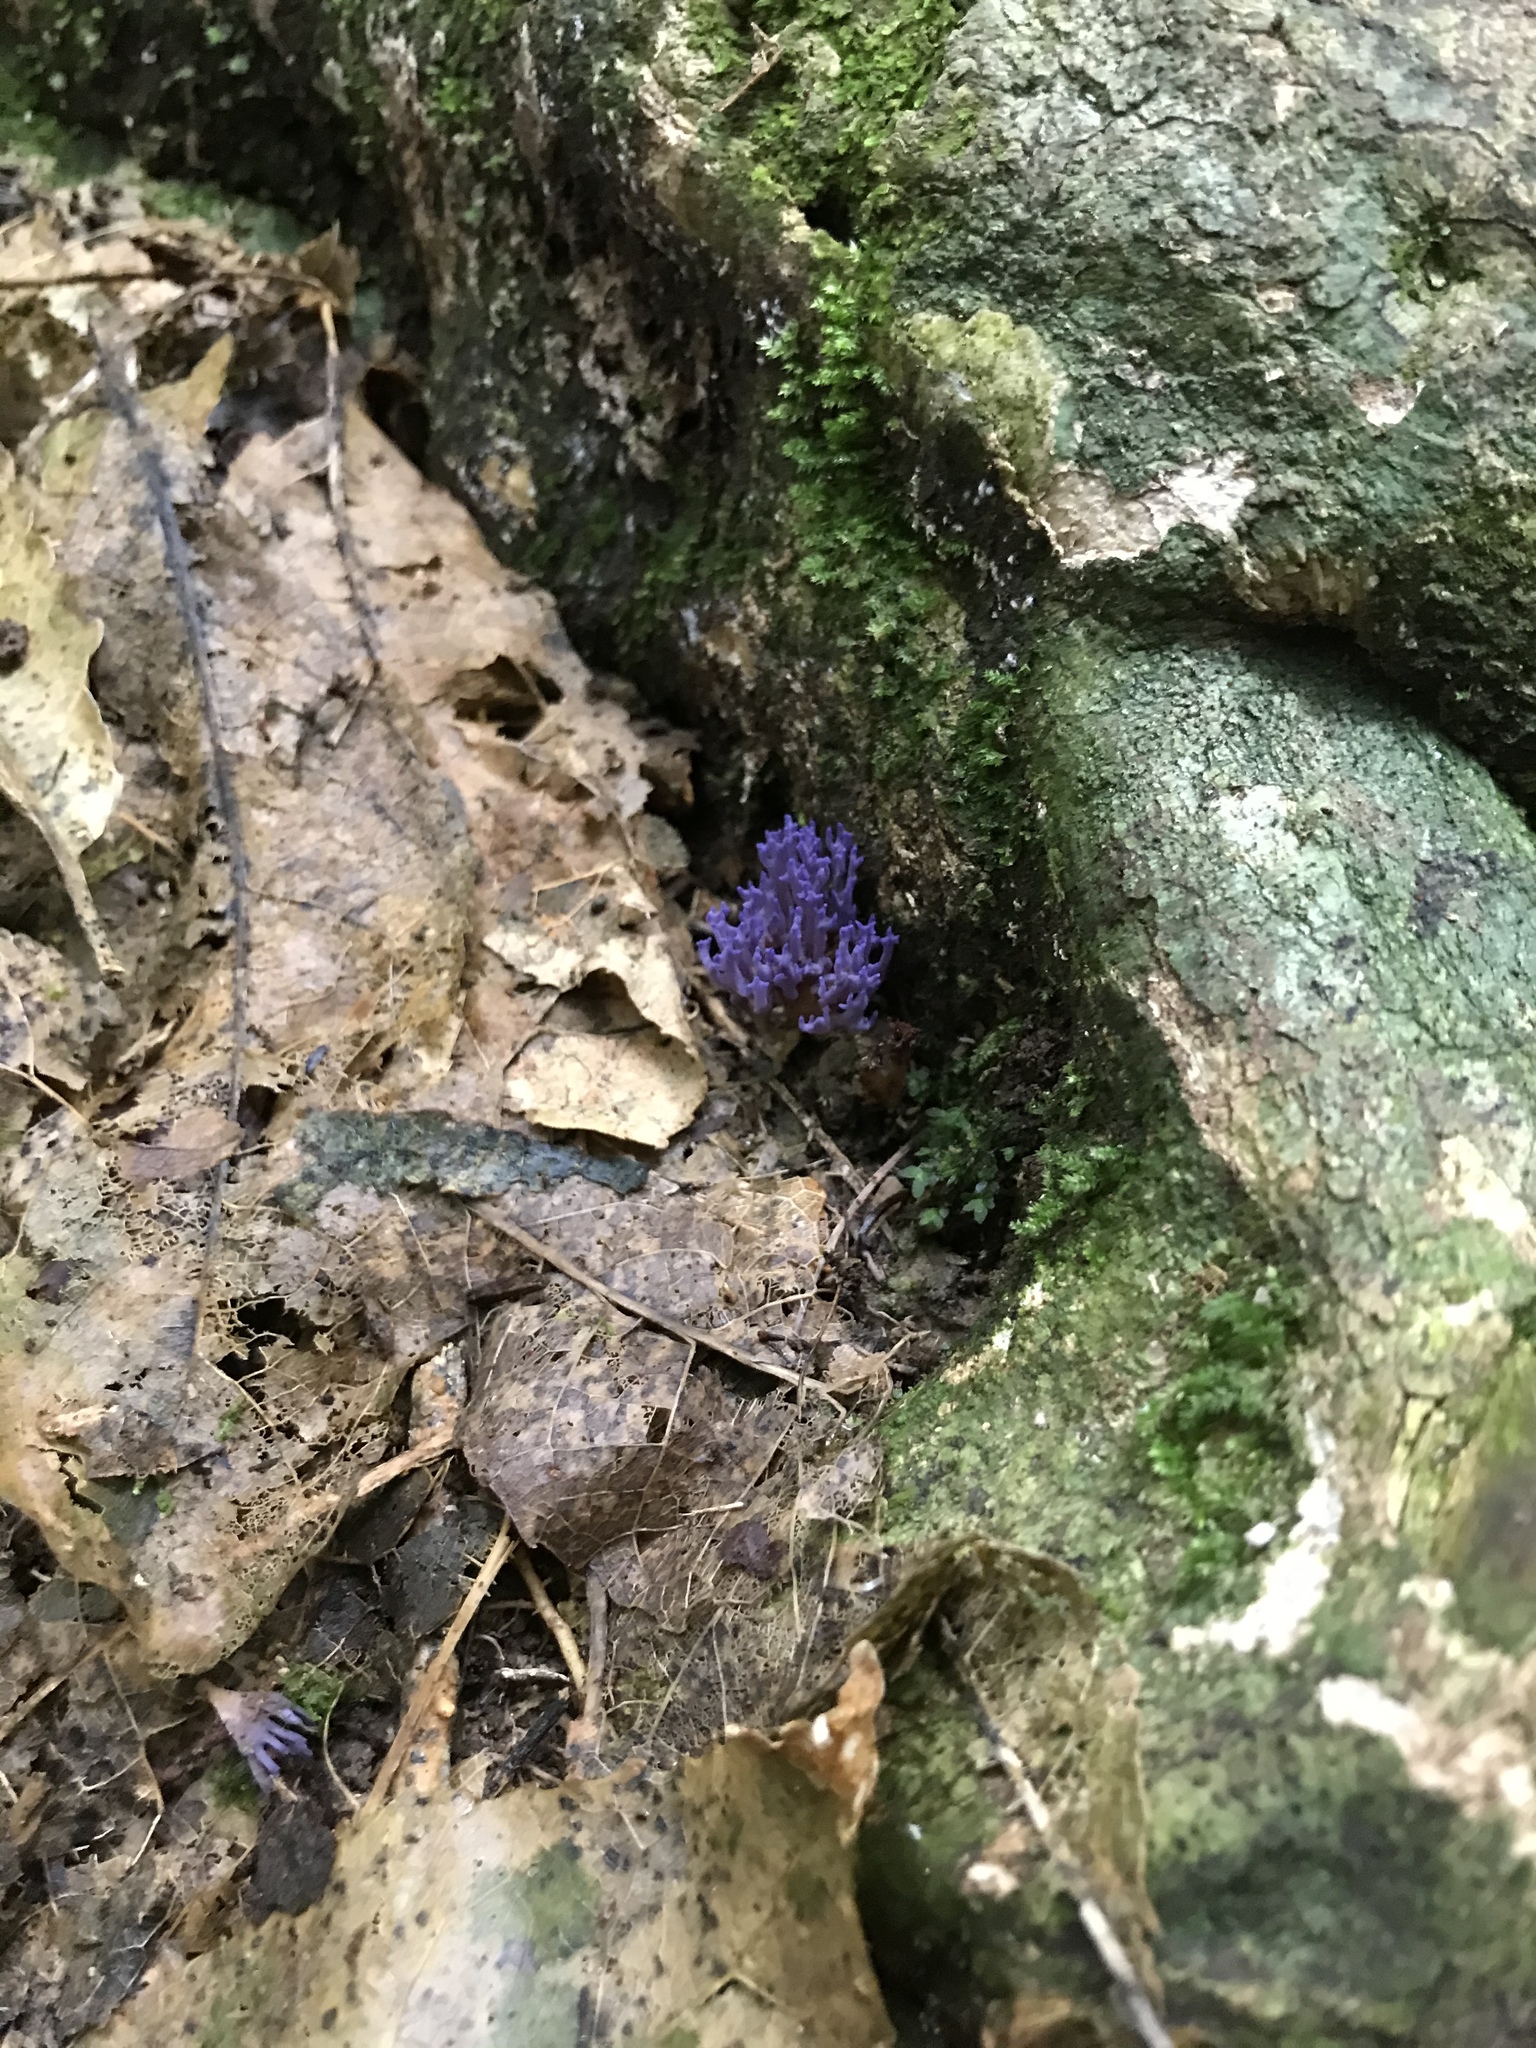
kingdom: Fungi
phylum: Basidiomycota
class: Agaricomycetes
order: Agaricales
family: Clavariaceae
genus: Ramariopsis
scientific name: Ramariopsis pulchella
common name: Lilac coral
